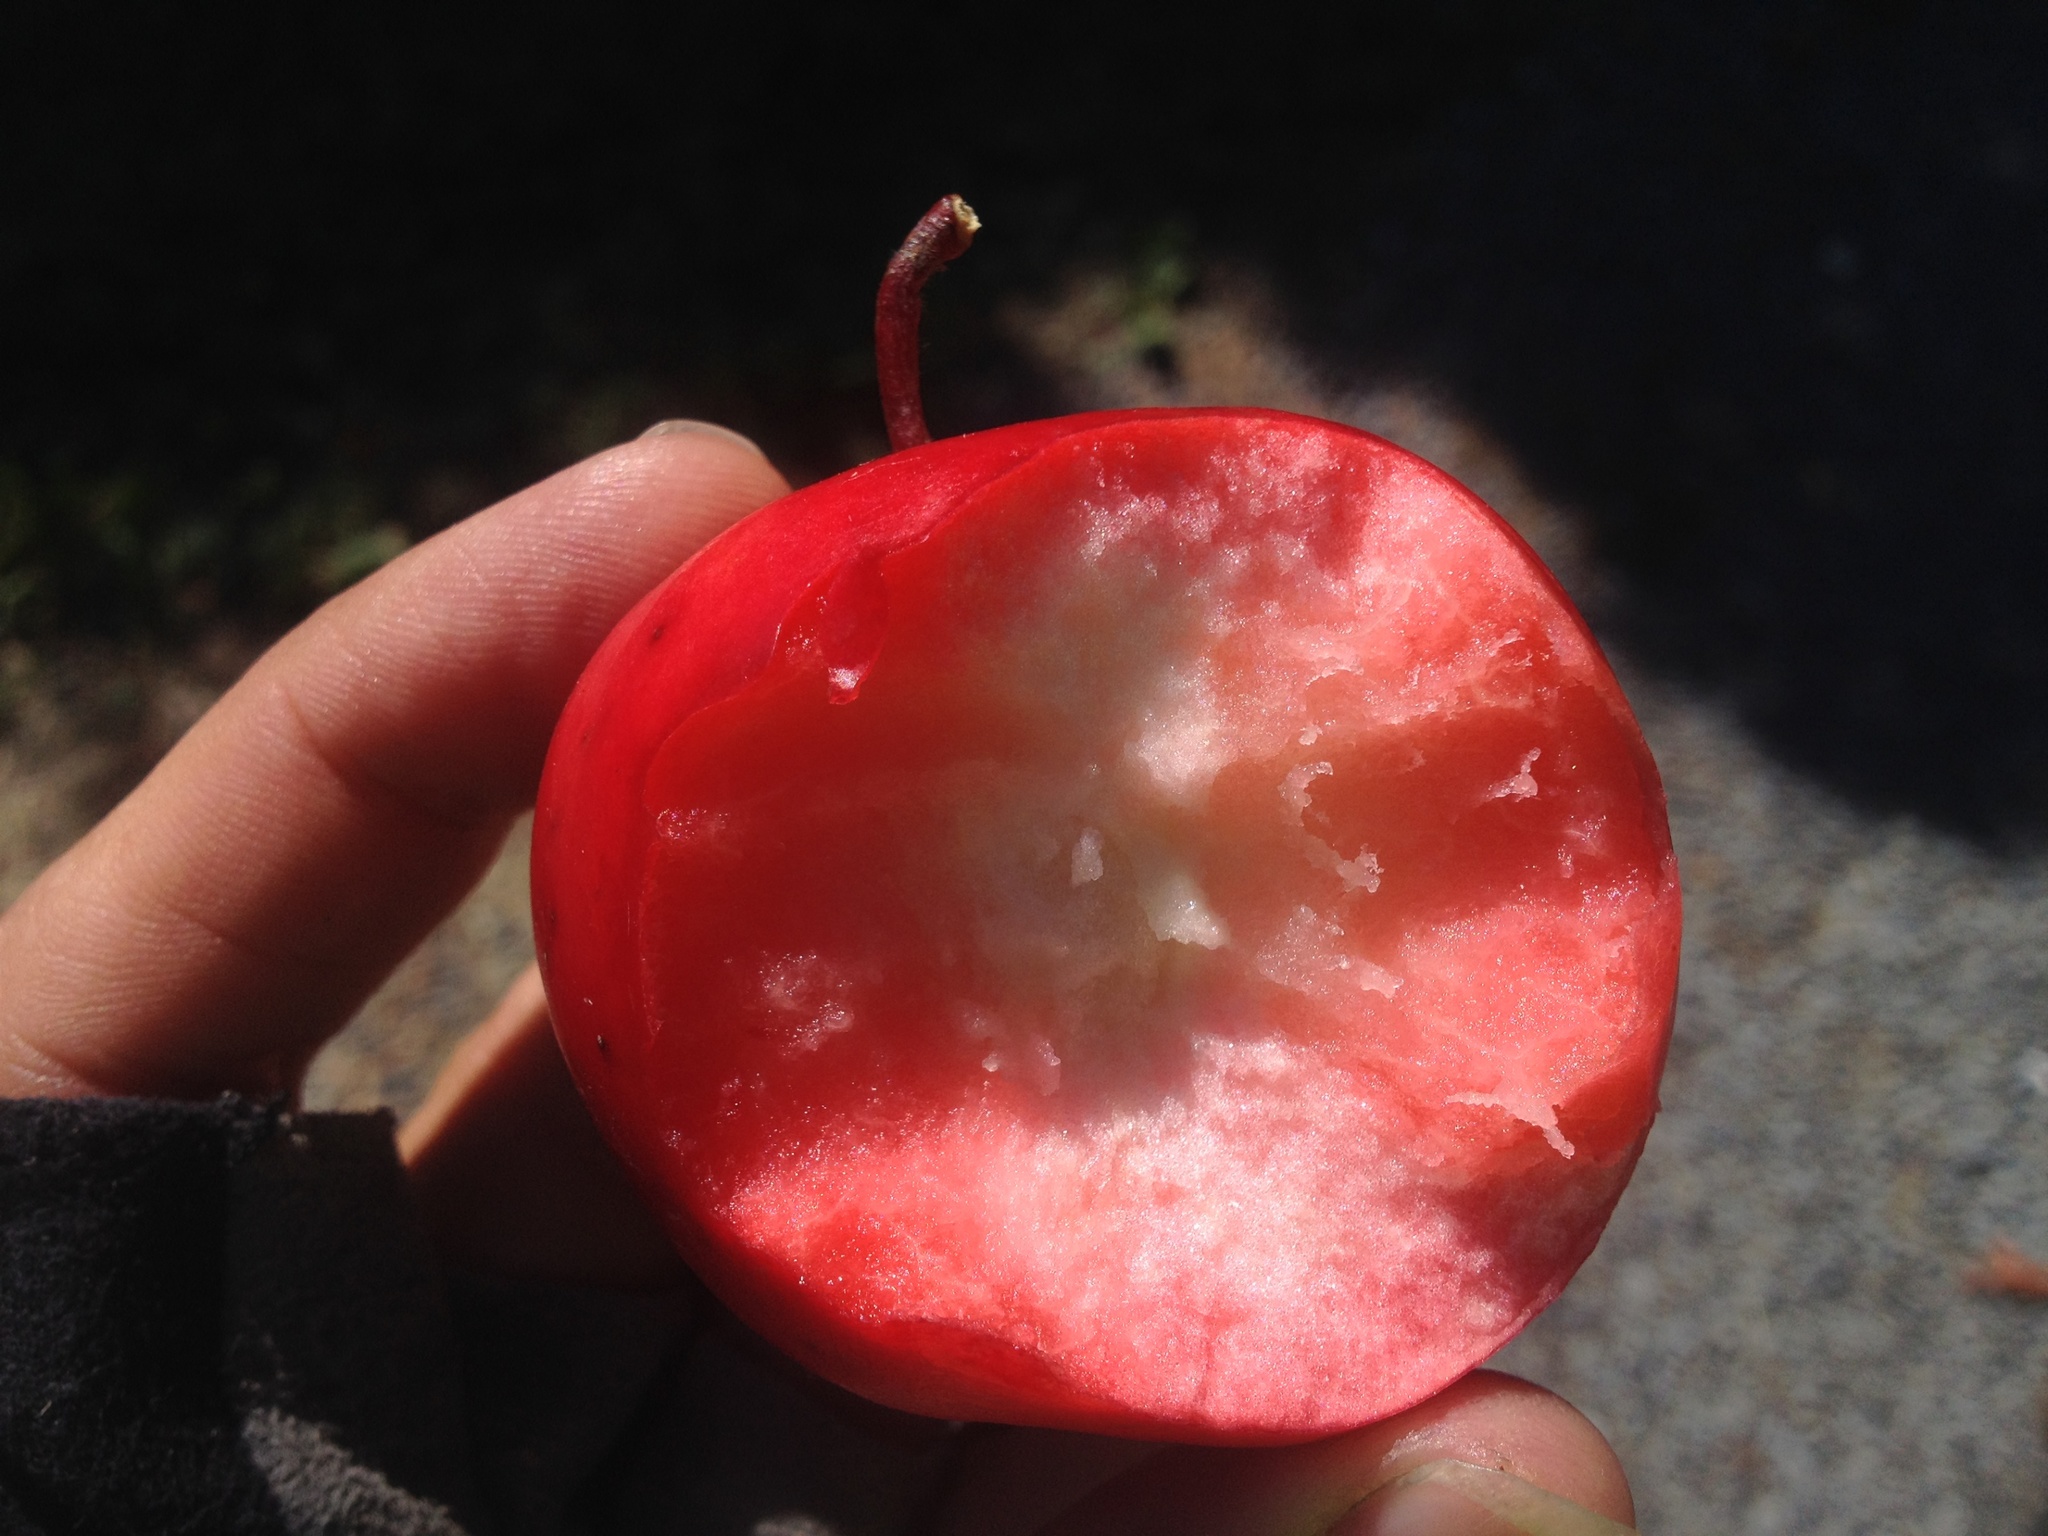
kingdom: Plantae
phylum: Tracheophyta
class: Magnoliopsida
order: Rosales
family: Rosaceae
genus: Malus
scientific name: Malus domestica
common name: Apple
